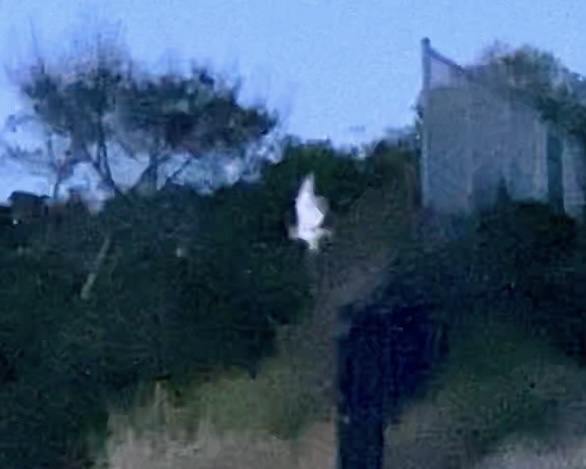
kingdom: Animalia
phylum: Chordata
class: Aves
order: Strigiformes
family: Tytonidae
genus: Tyto
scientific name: Tyto alba
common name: Barn owl
